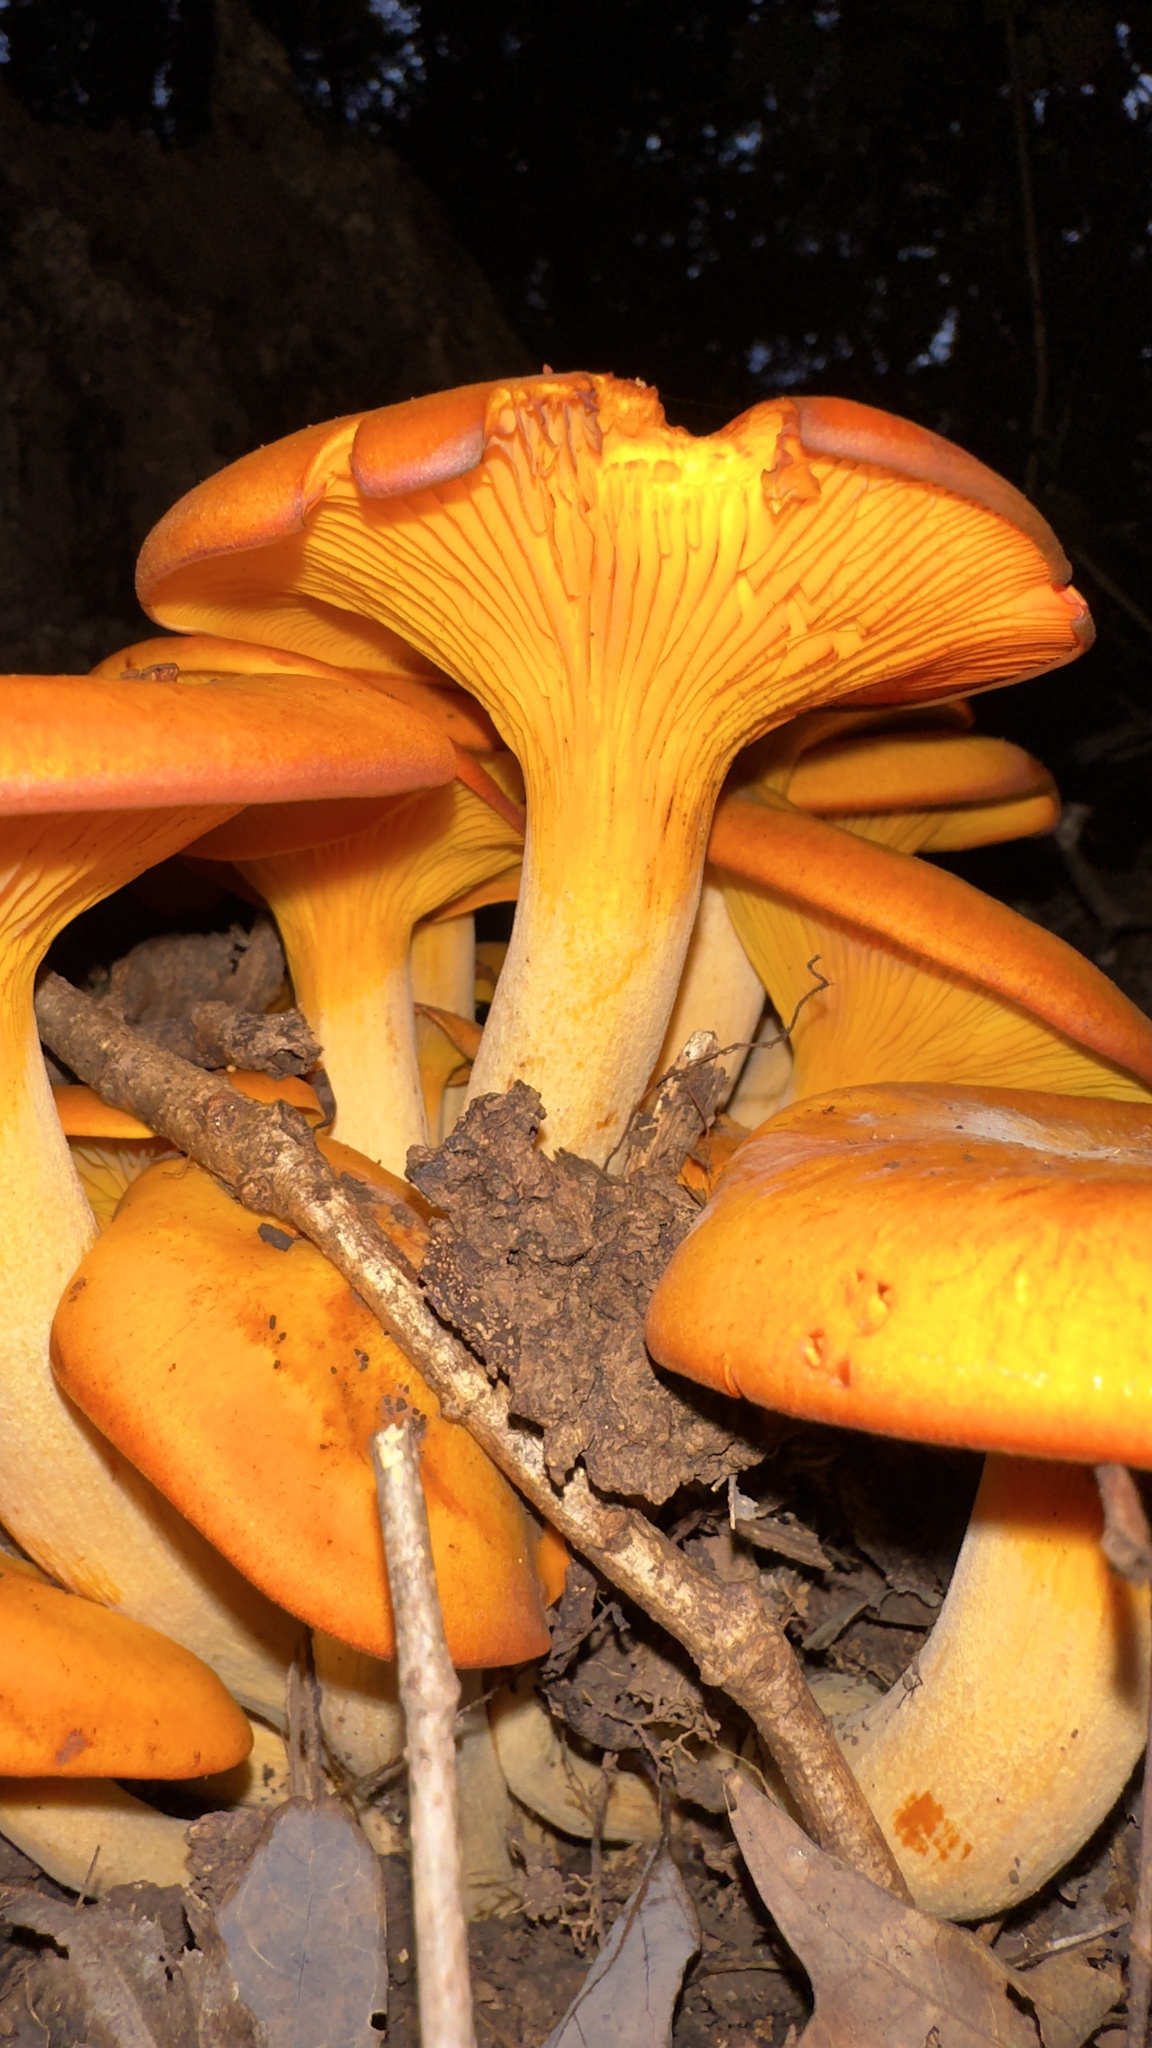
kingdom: Fungi
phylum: Basidiomycota
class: Agaricomycetes
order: Agaricales
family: Omphalotaceae
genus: Omphalotus
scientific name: Omphalotus illudens
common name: Jack o lantern
